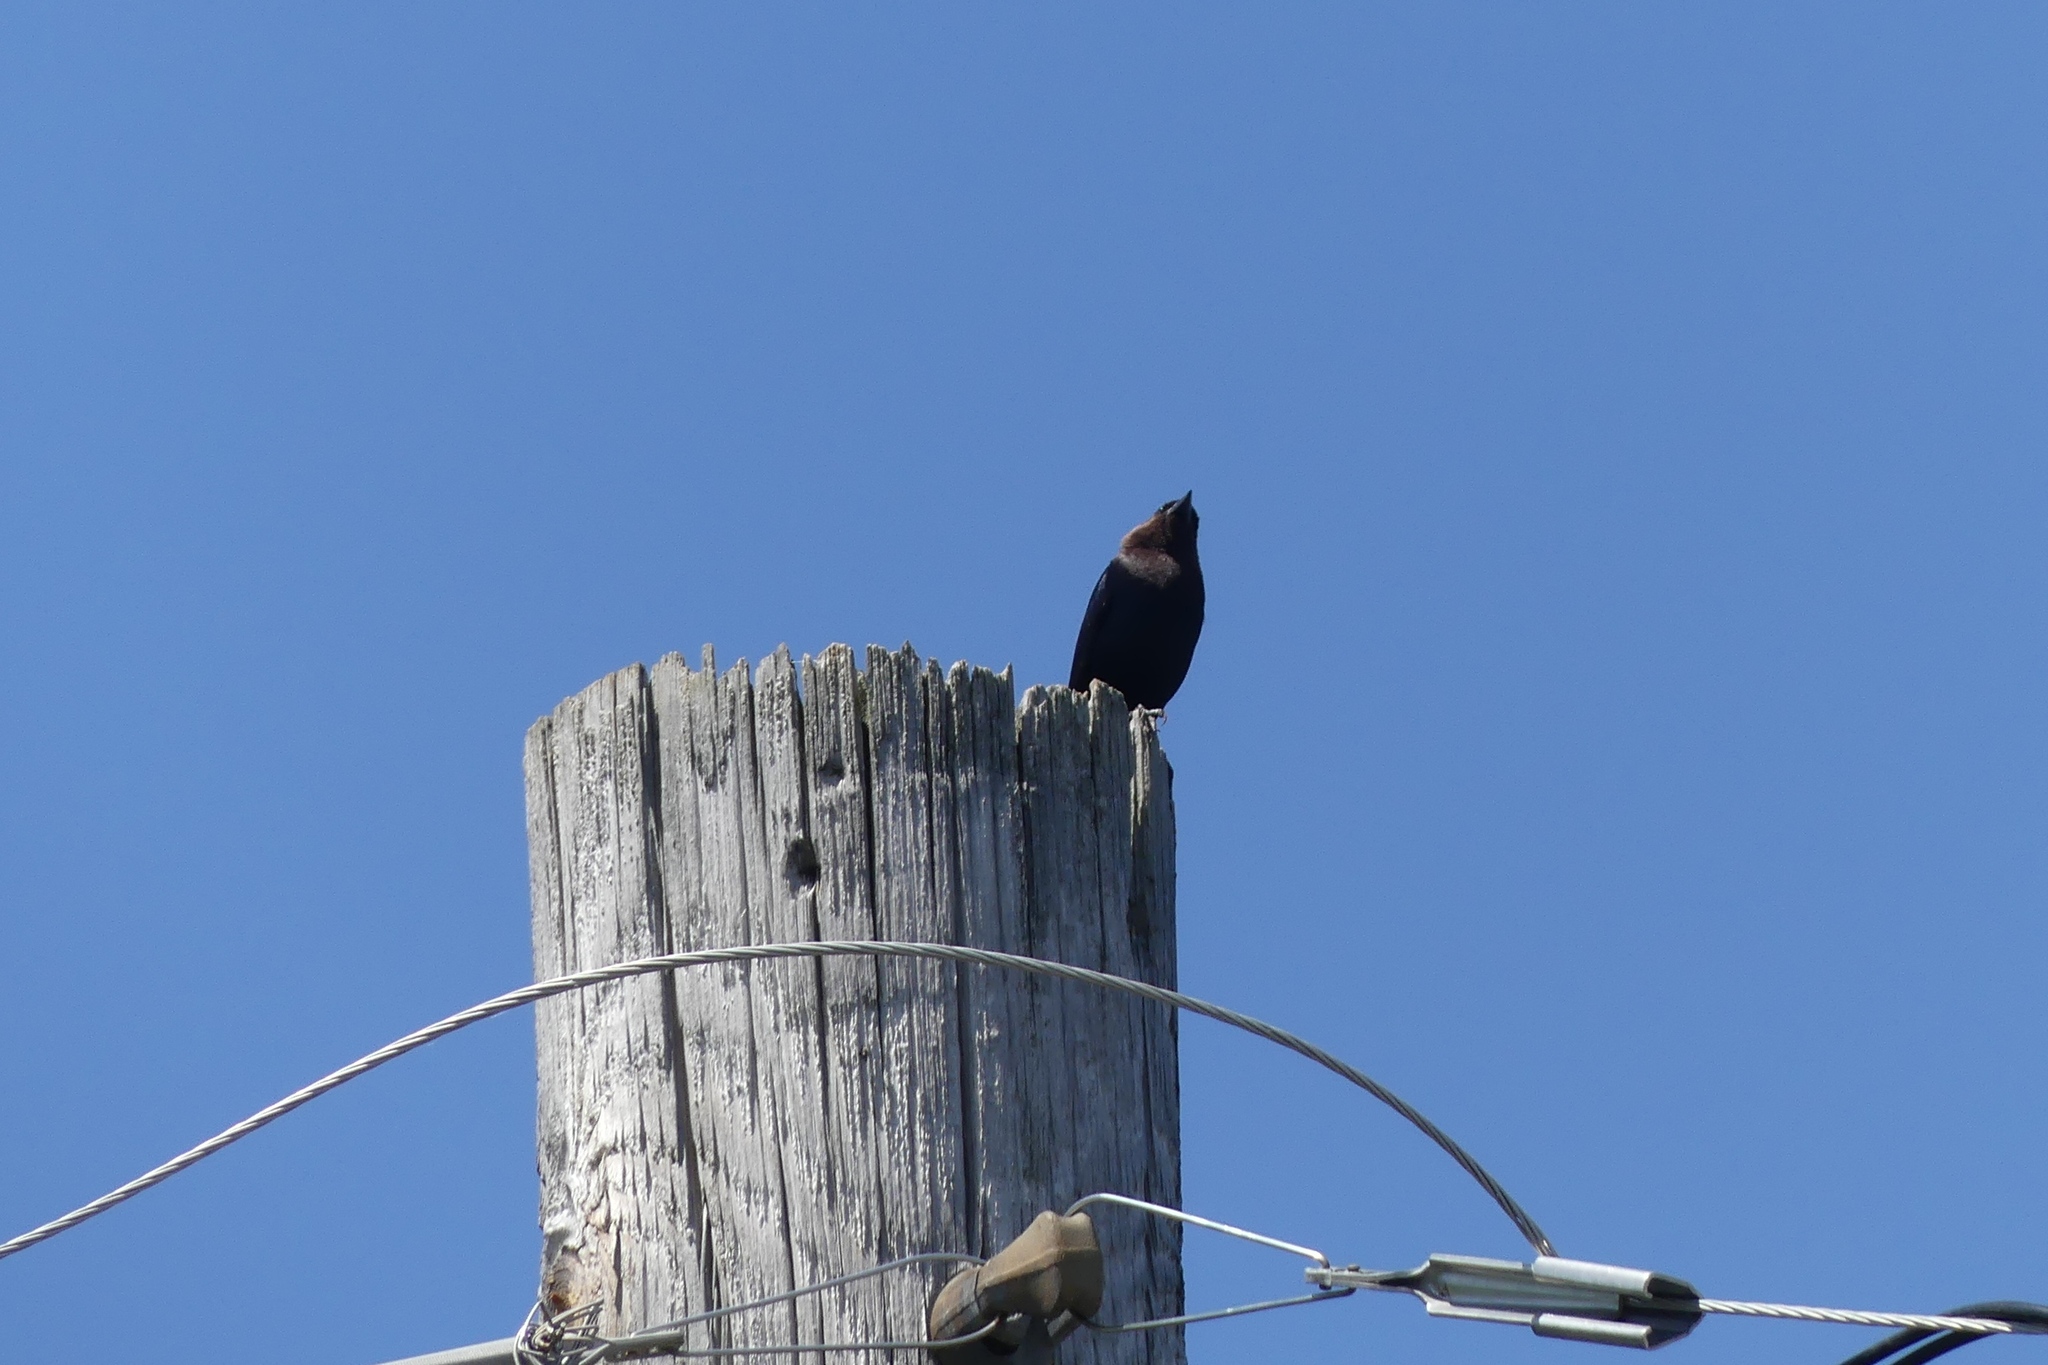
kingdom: Animalia
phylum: Chordata
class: Aves
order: Passeriformes
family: Icteridae
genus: Molothrus
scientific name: Molothrus ater
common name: Brown-headed cowbird
